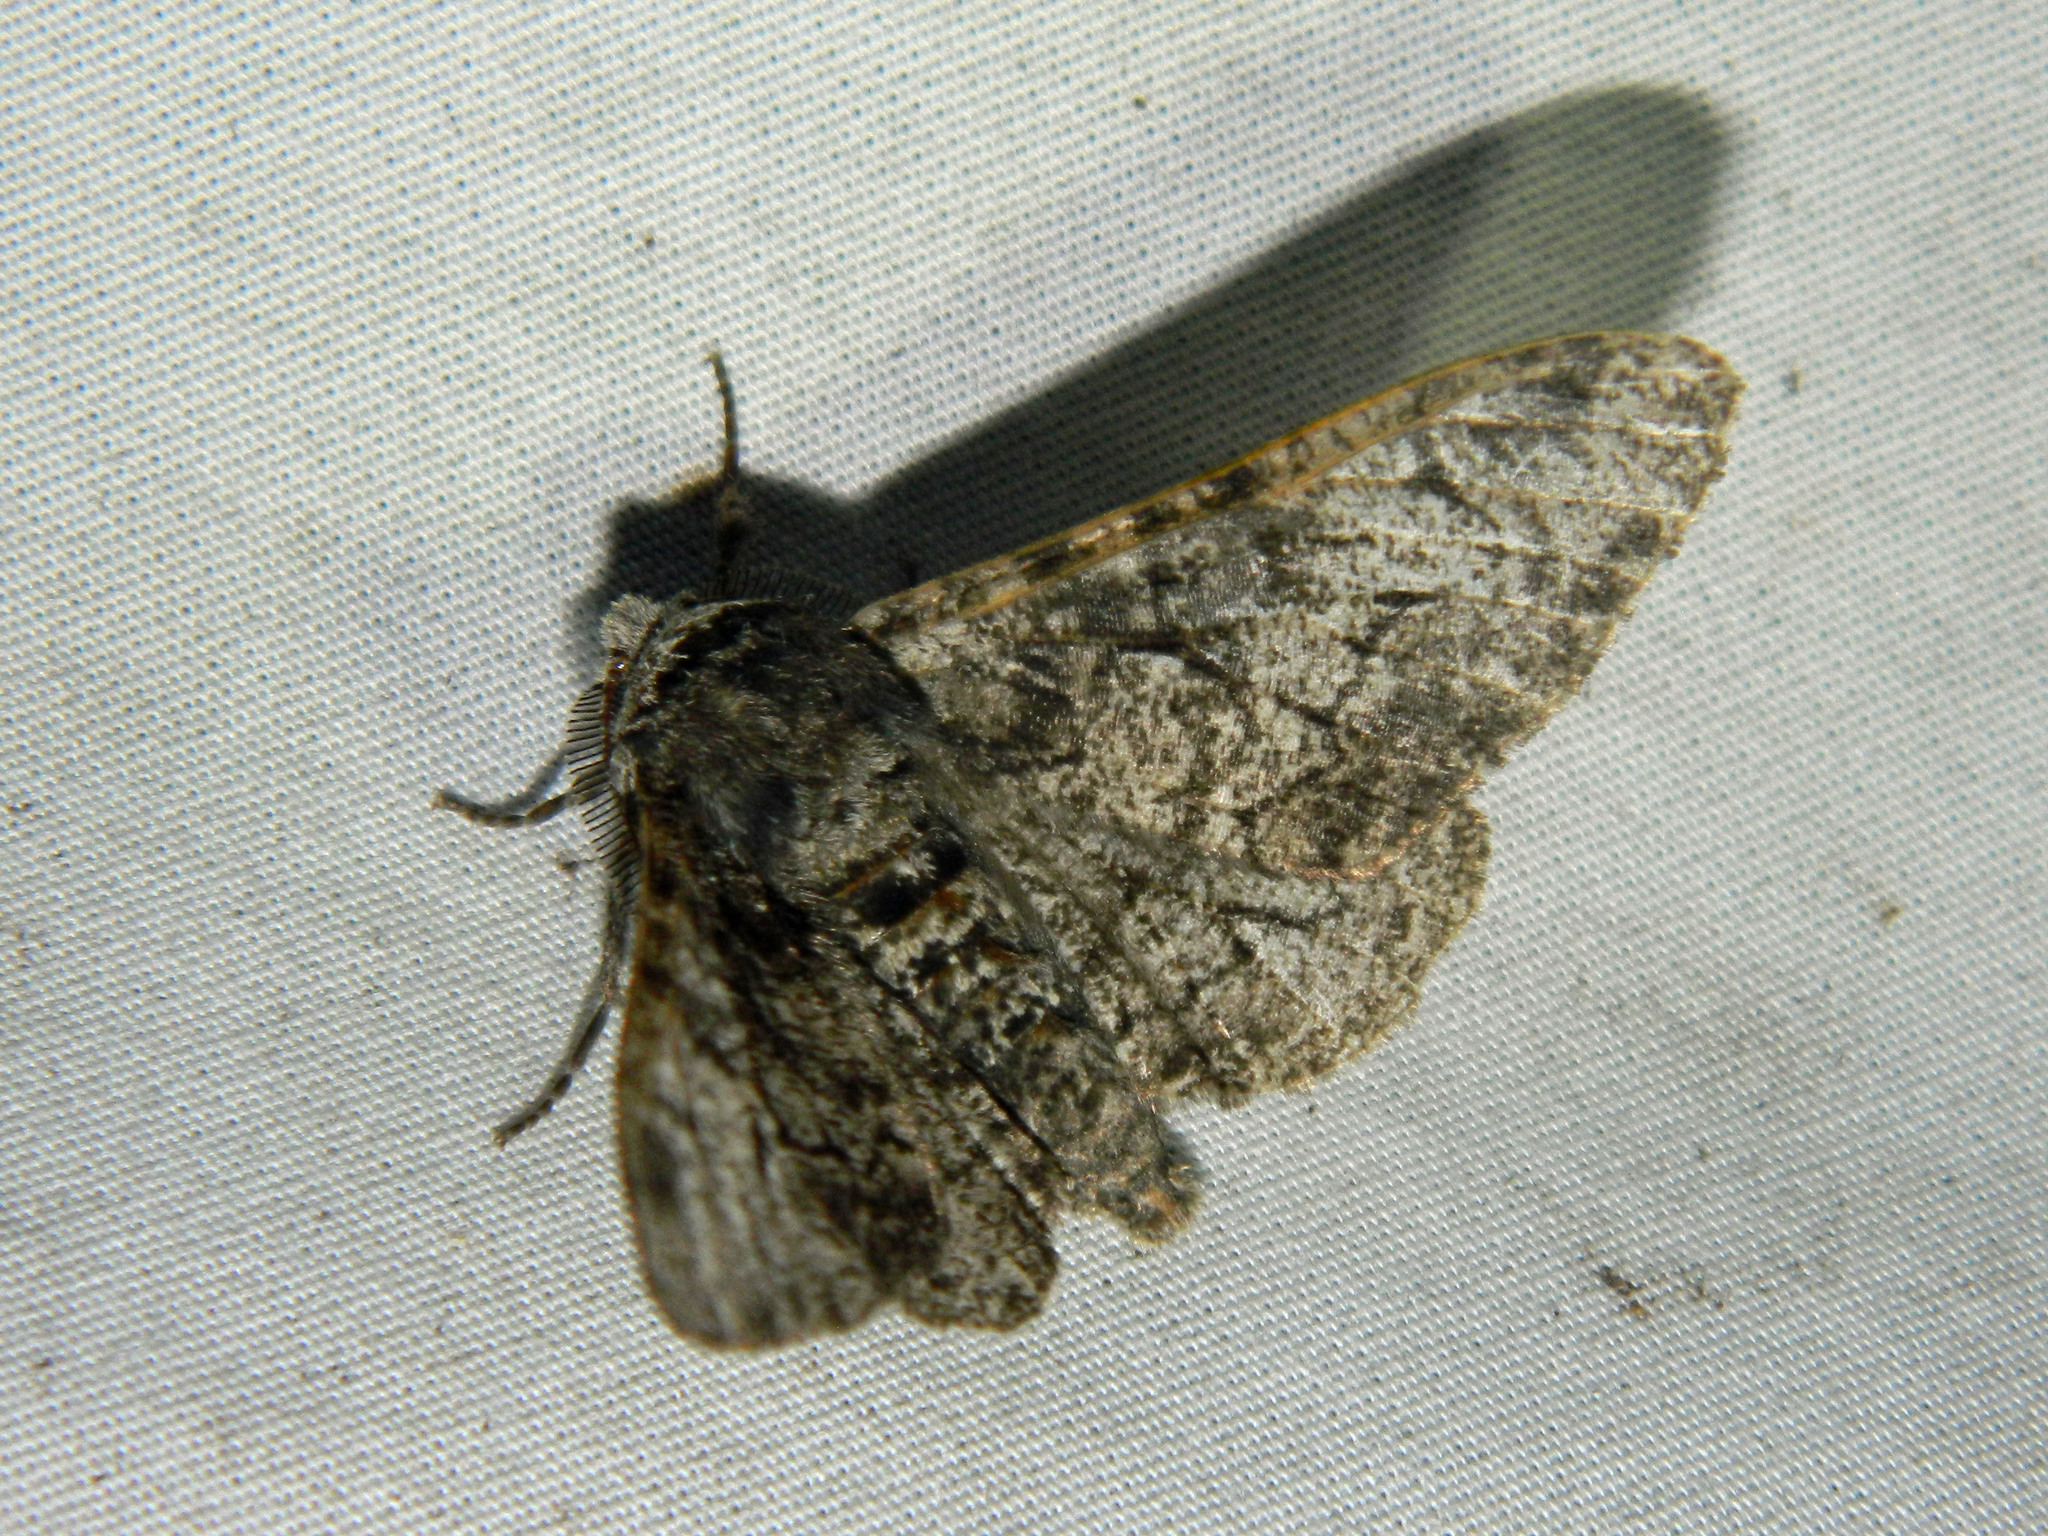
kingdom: Animalia
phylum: Arthropoda
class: Insecta
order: Lepidoptera
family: Geometridae
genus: Biston
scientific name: Biston betularia
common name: Peppered moth
